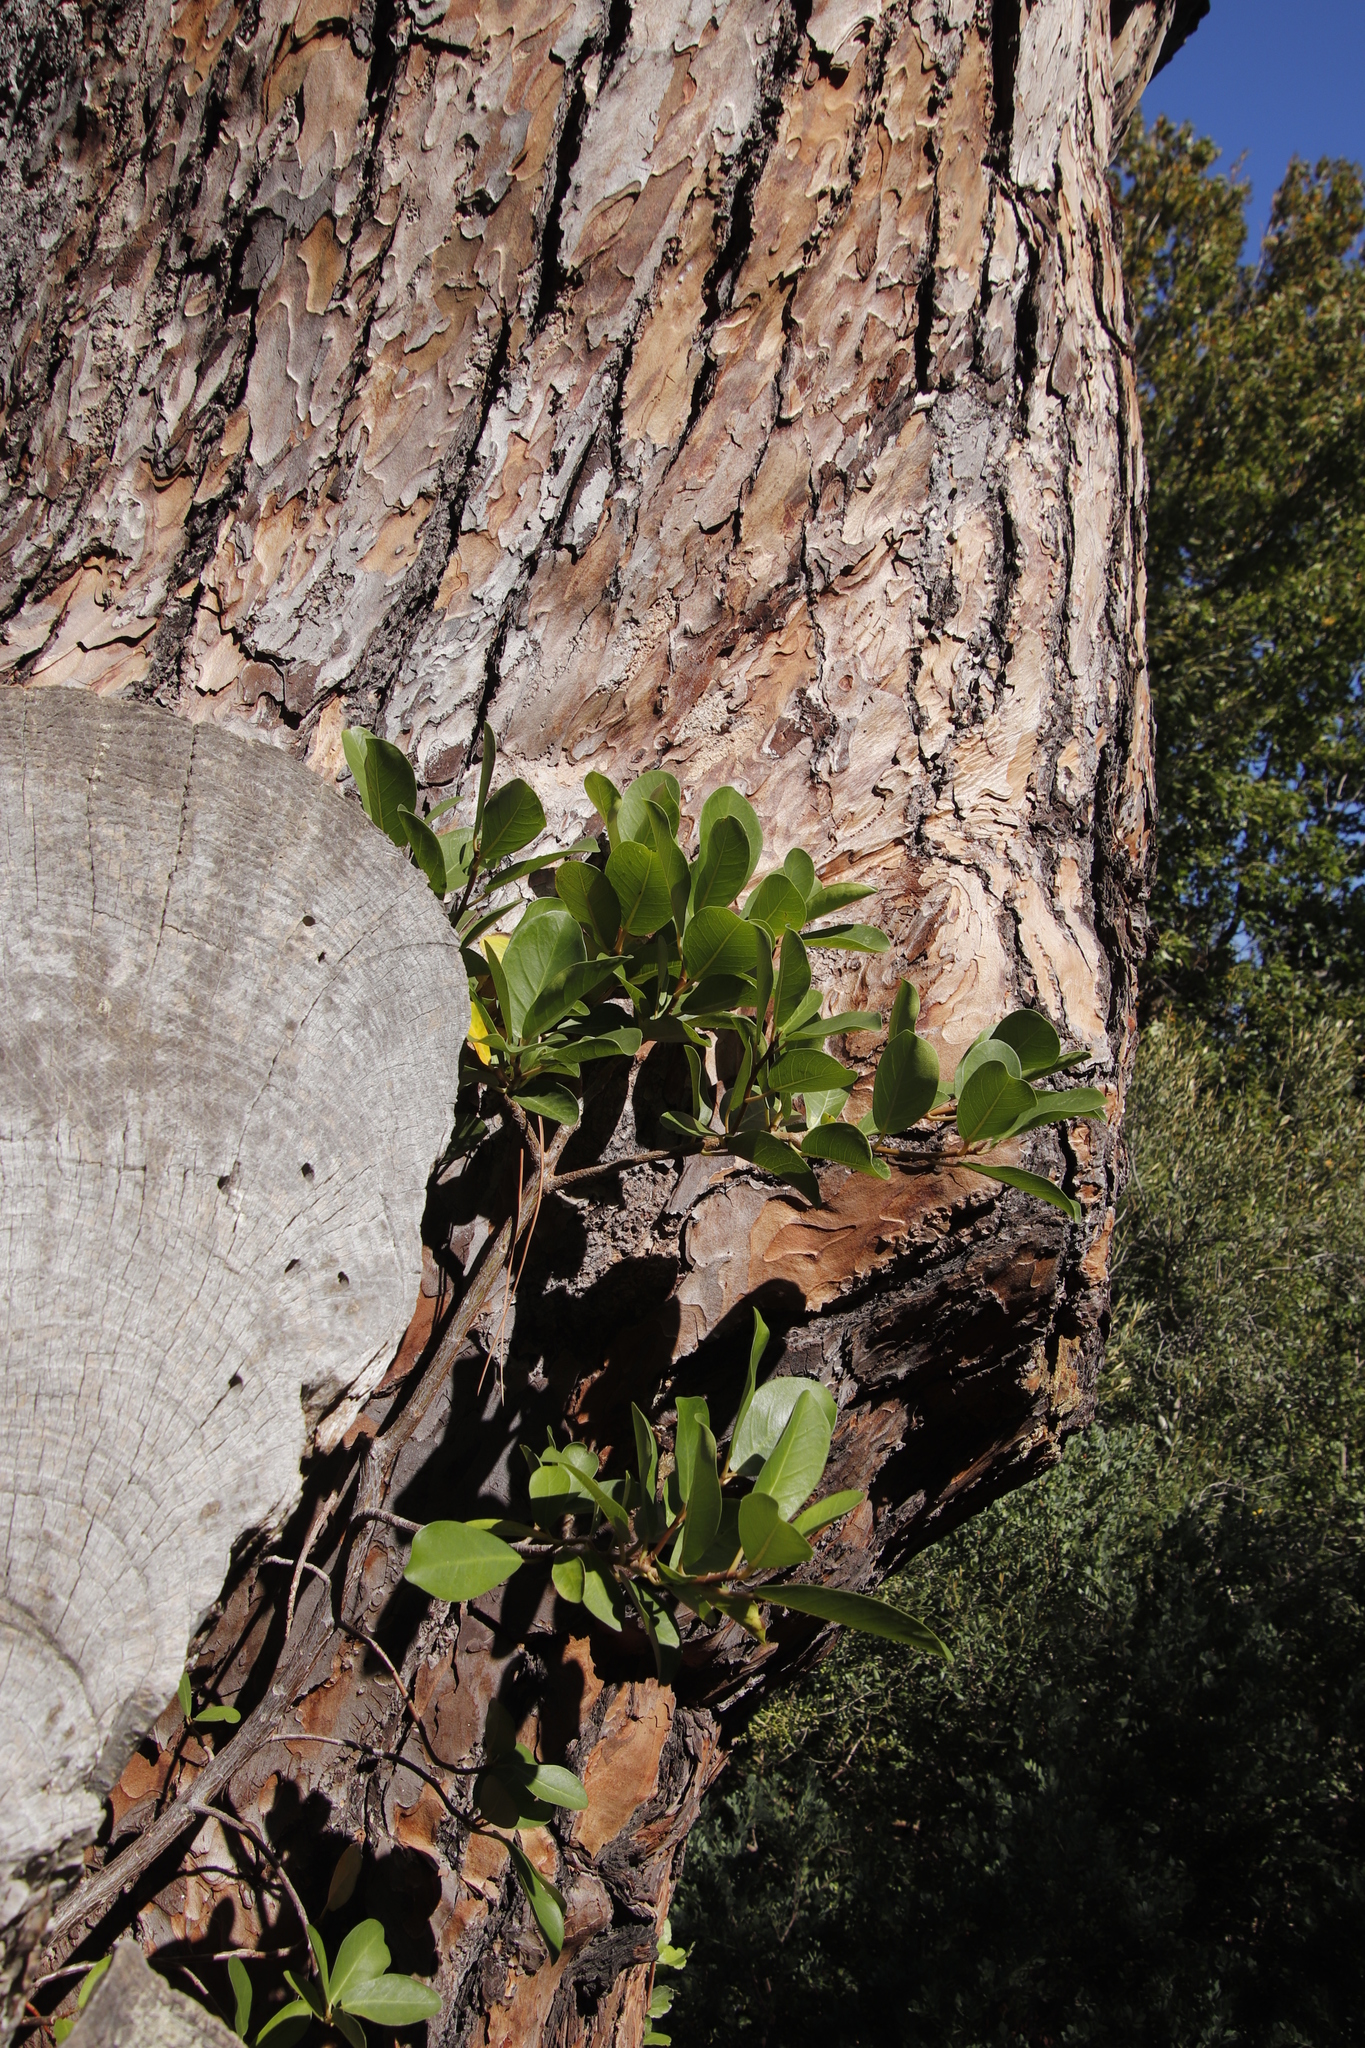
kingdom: Plantae
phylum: Tracheophyta
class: Magnoliopsida
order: Rosales
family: Moraceae
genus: Ficus
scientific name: Ficus thonningii
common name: Fig
